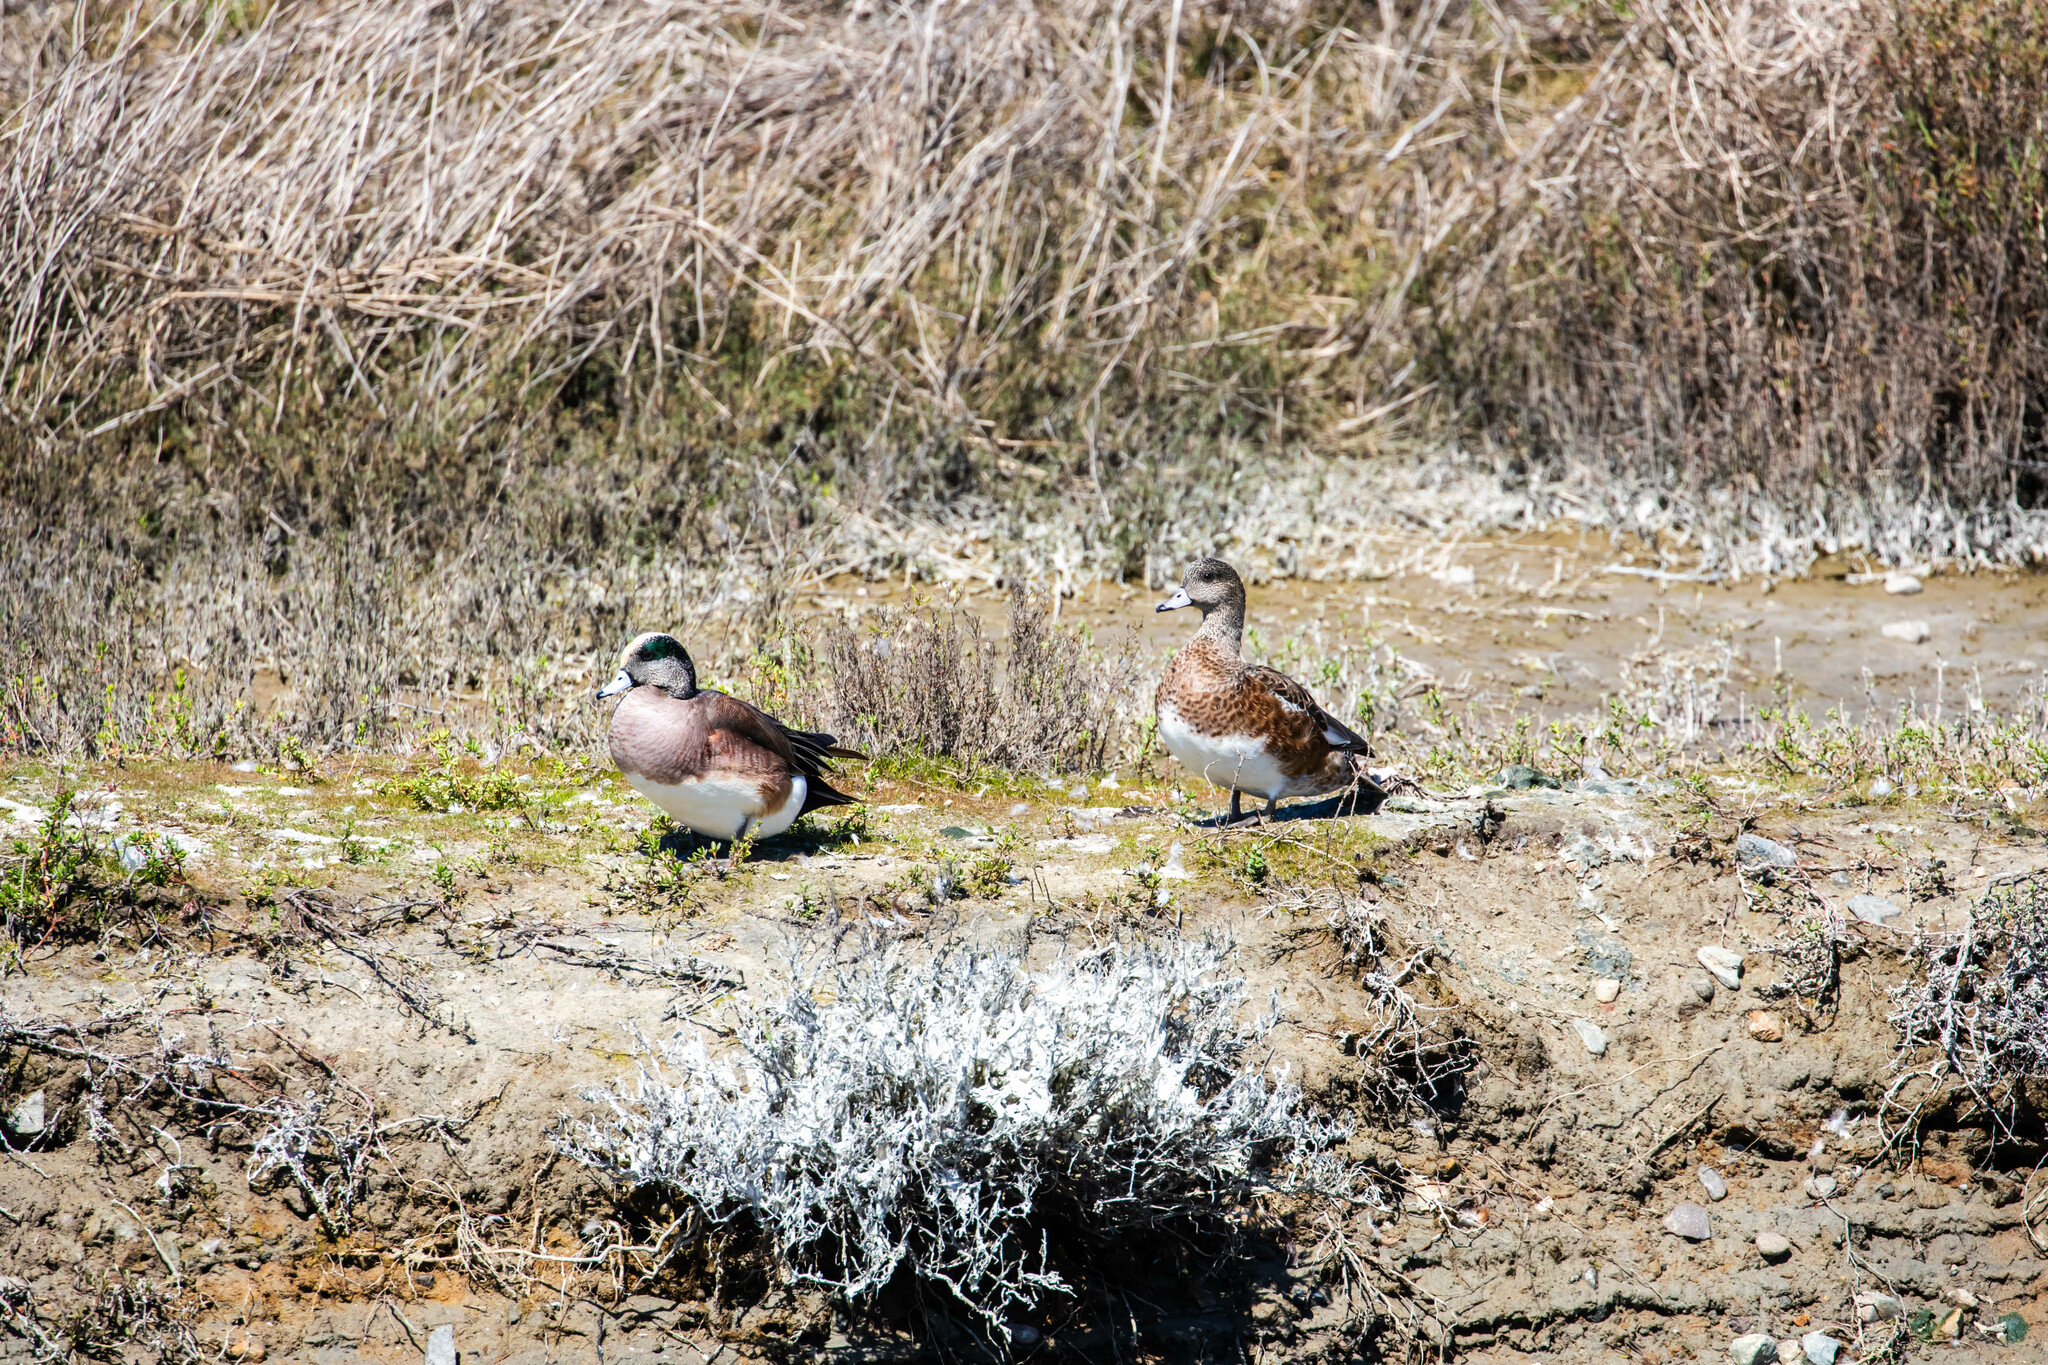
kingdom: Animalia
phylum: Chordata
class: Aves
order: Anseriformes
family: Anatidae
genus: Mareca
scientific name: Mareca americana
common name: American wigeon
